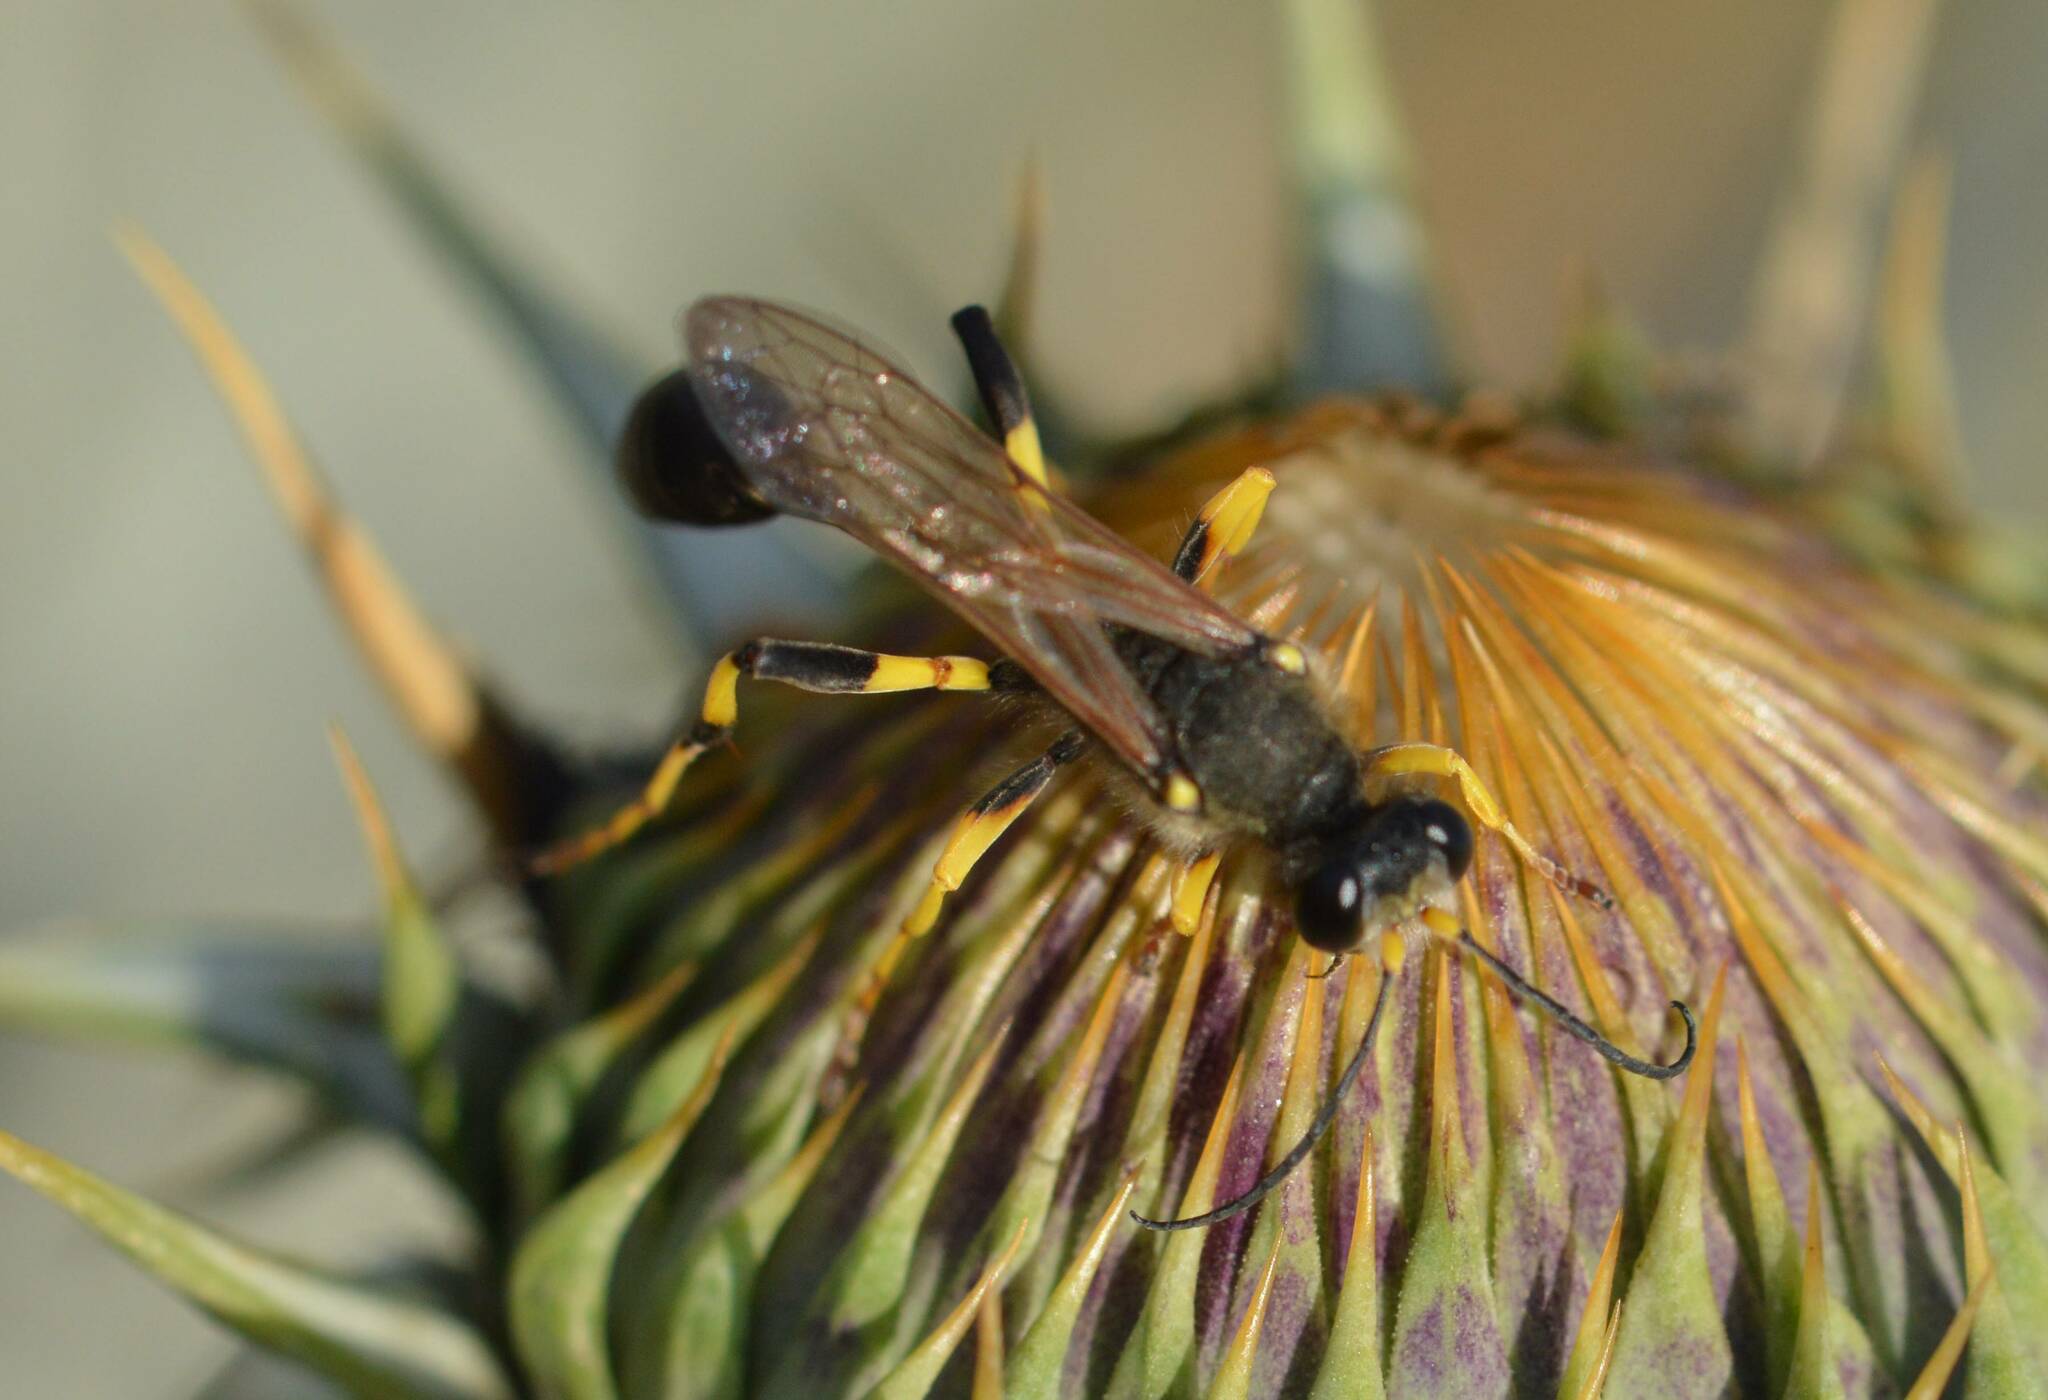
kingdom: Animalia
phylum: Arthropoda
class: Insecta
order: Hymenoptera
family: Sphecidae
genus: Sceliphron
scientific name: Sceliphron destillatorium
